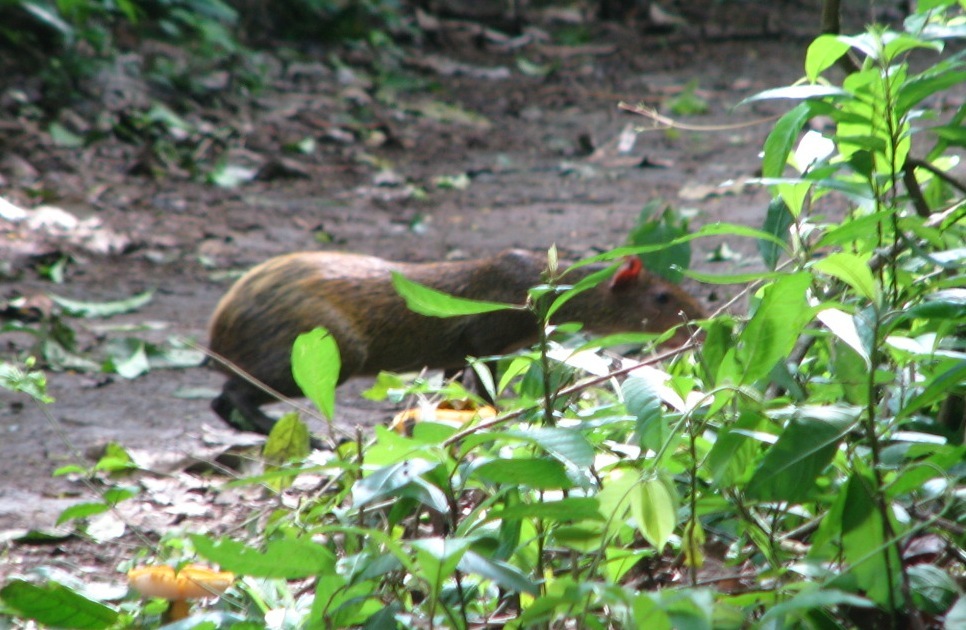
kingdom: Animalia
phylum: Chordata
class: Mammalia
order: Rodentia
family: Dasyproctidae
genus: Dasyprocta
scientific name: Dasyprocta punctata
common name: Central american agouti
